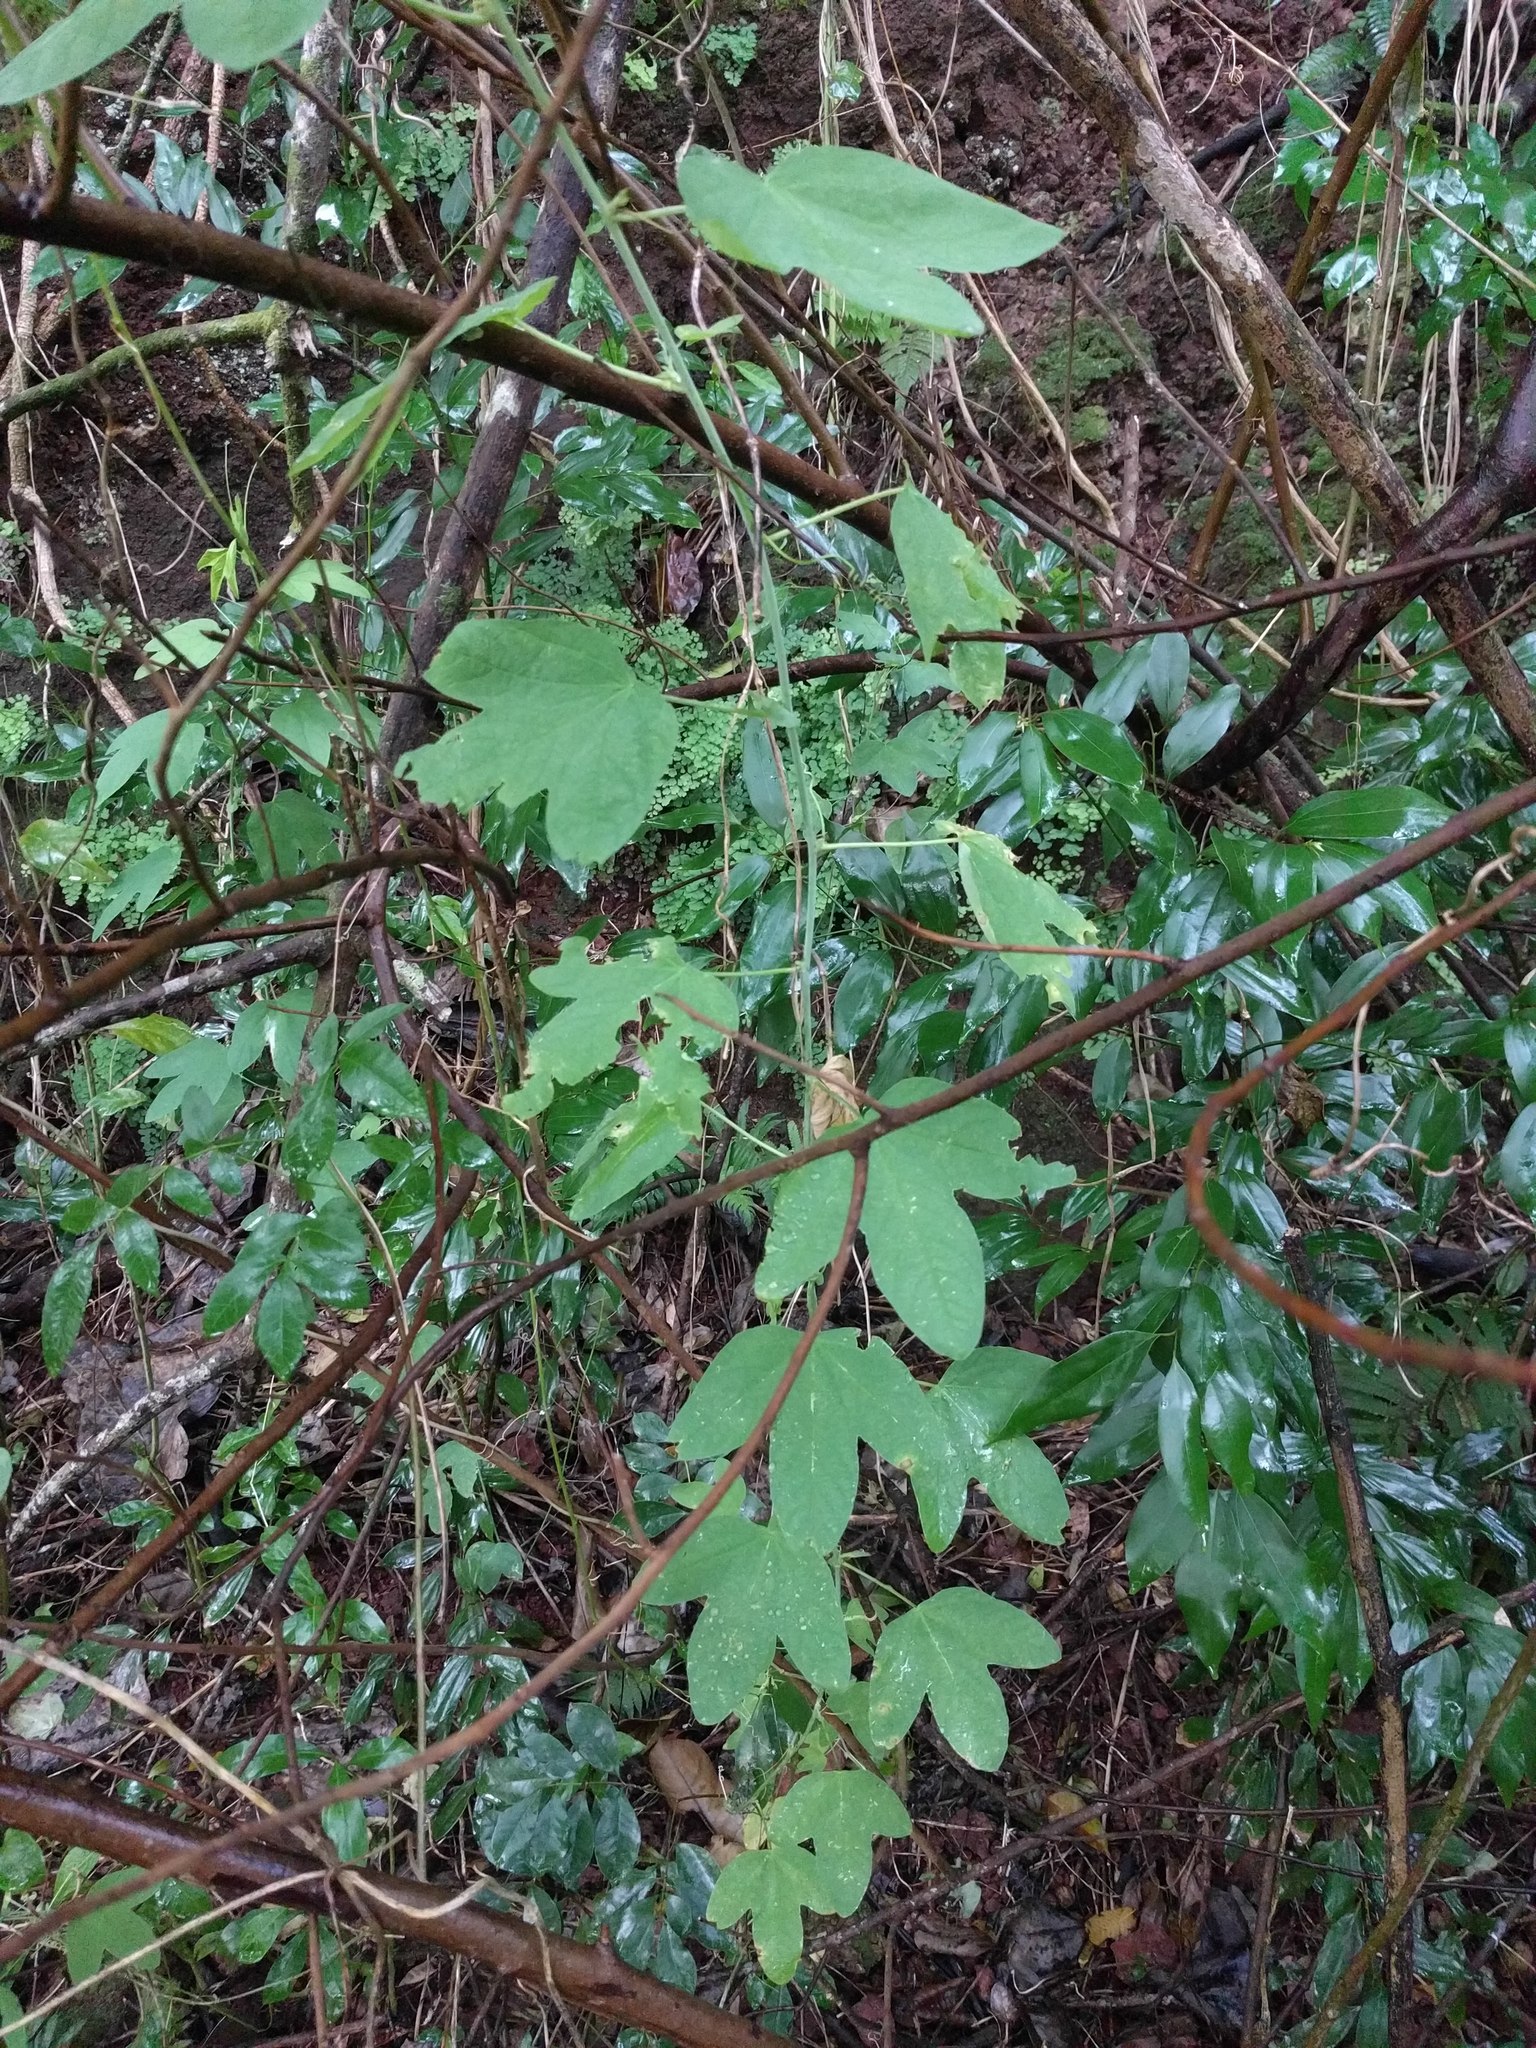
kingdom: Plantae
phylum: Tracheophyta
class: Magnoliopsida
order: Malpighiales
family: Passifloraceae
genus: Passiflora
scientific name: Passiflora subpeltata
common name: White passionflower
